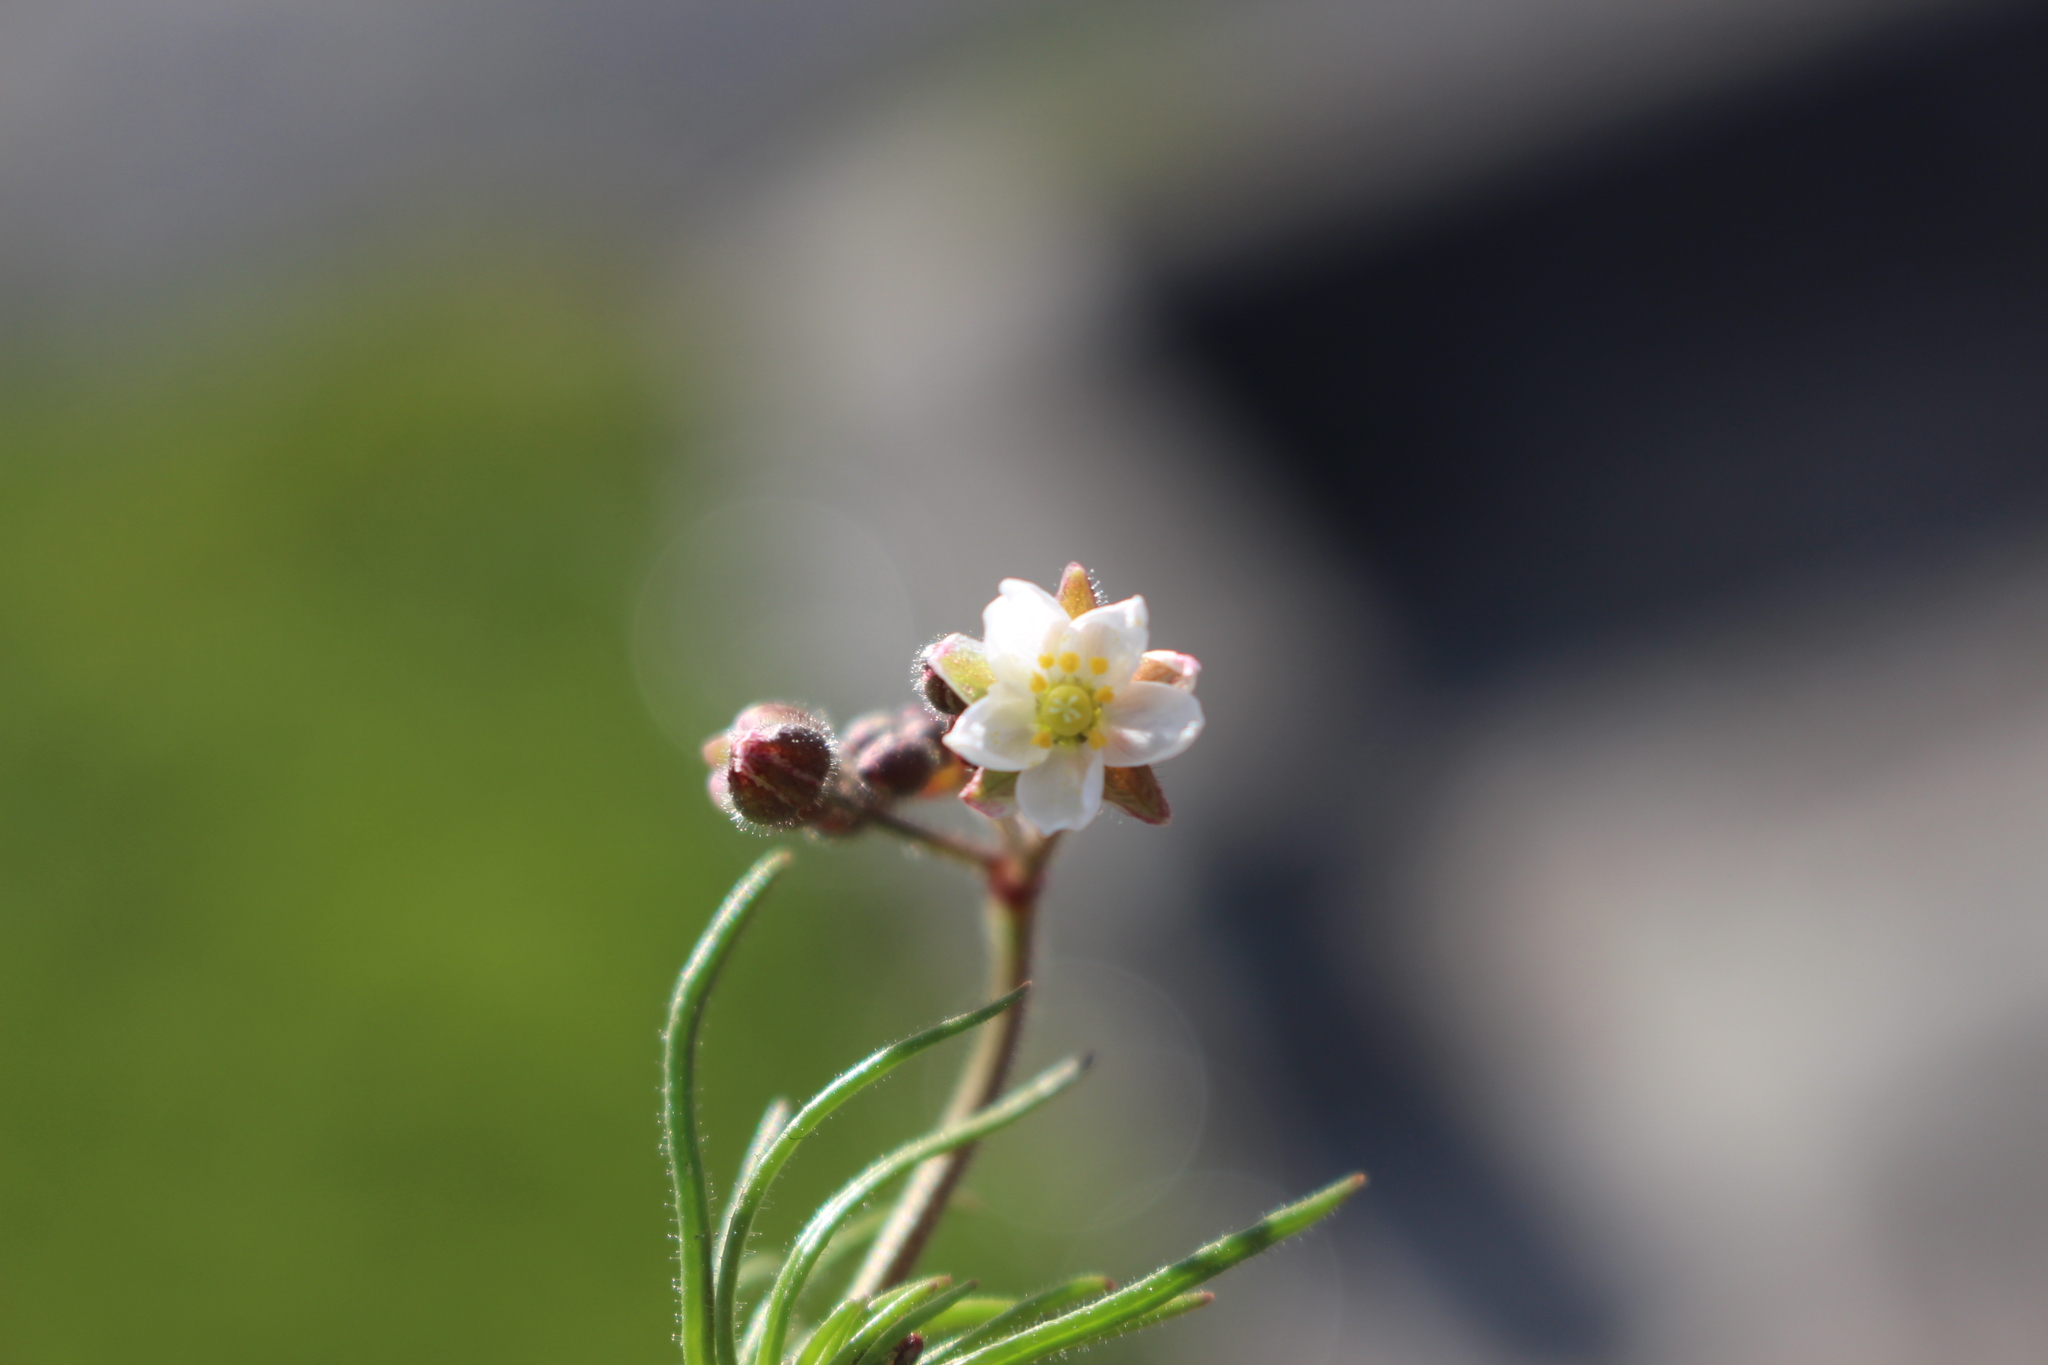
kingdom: Plantae
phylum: Tracheophyta
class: Magnoliopsida
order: Caryophyllales
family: Caryophyllaceae
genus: Spergula
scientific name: Spergula arvensis
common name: Corn spurrey
